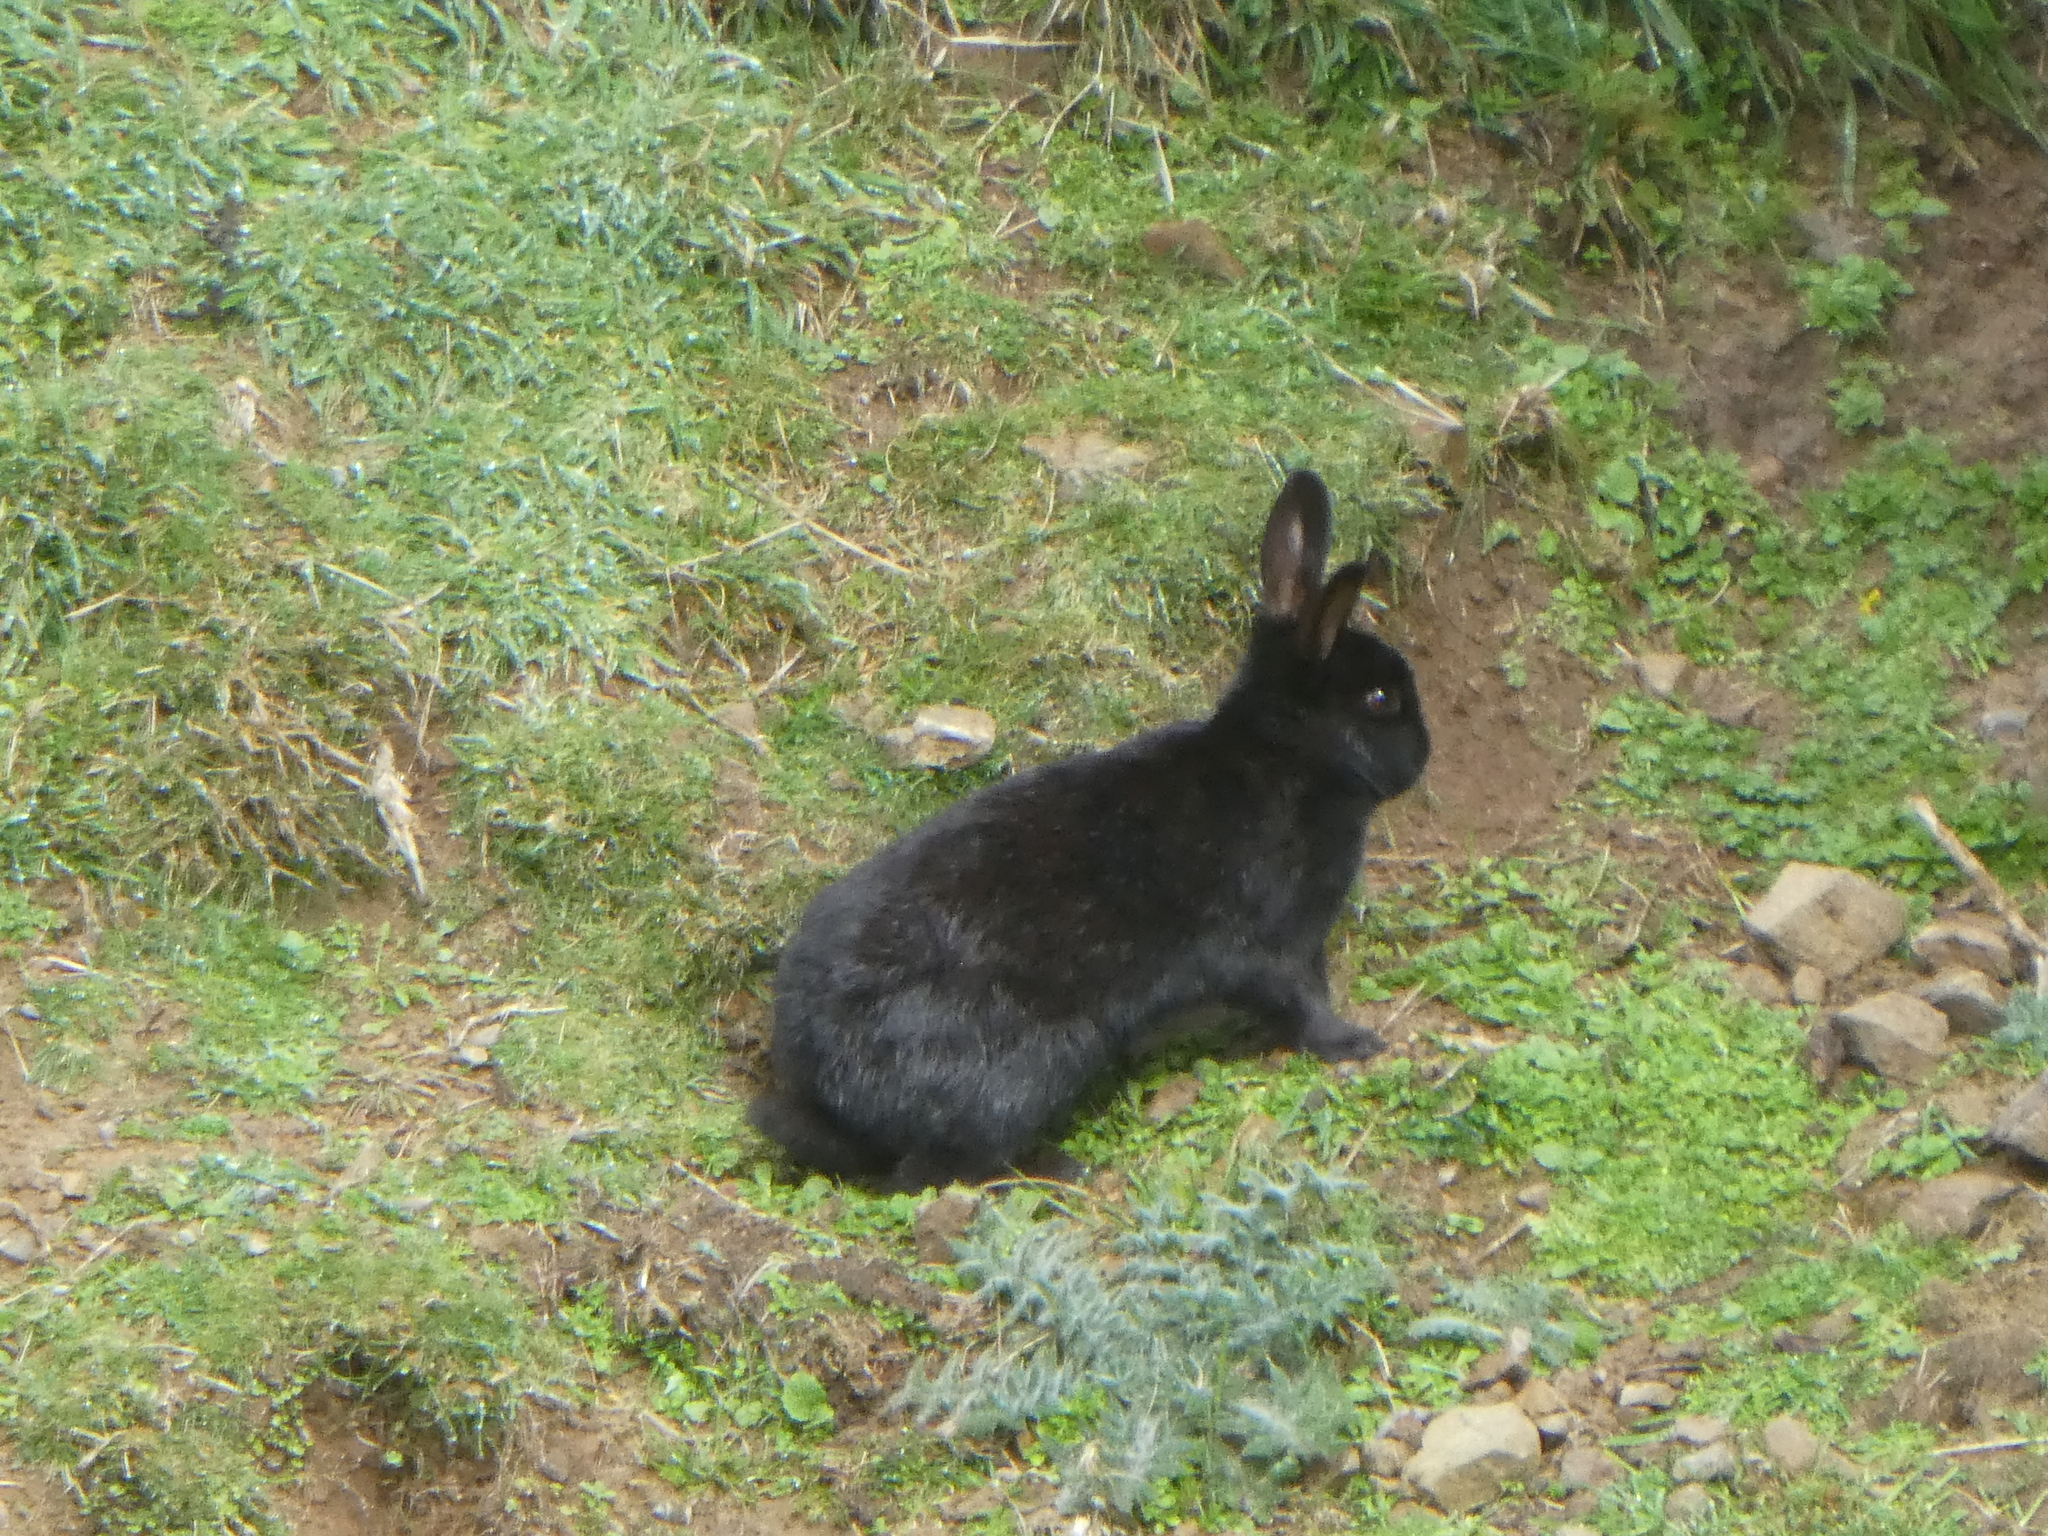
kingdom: Animalia
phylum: Chordata
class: Mammalia
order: Lagomorpha
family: Leporidae
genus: Oryctolagus
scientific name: Oryctolagus cuniculus
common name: European rabbit
